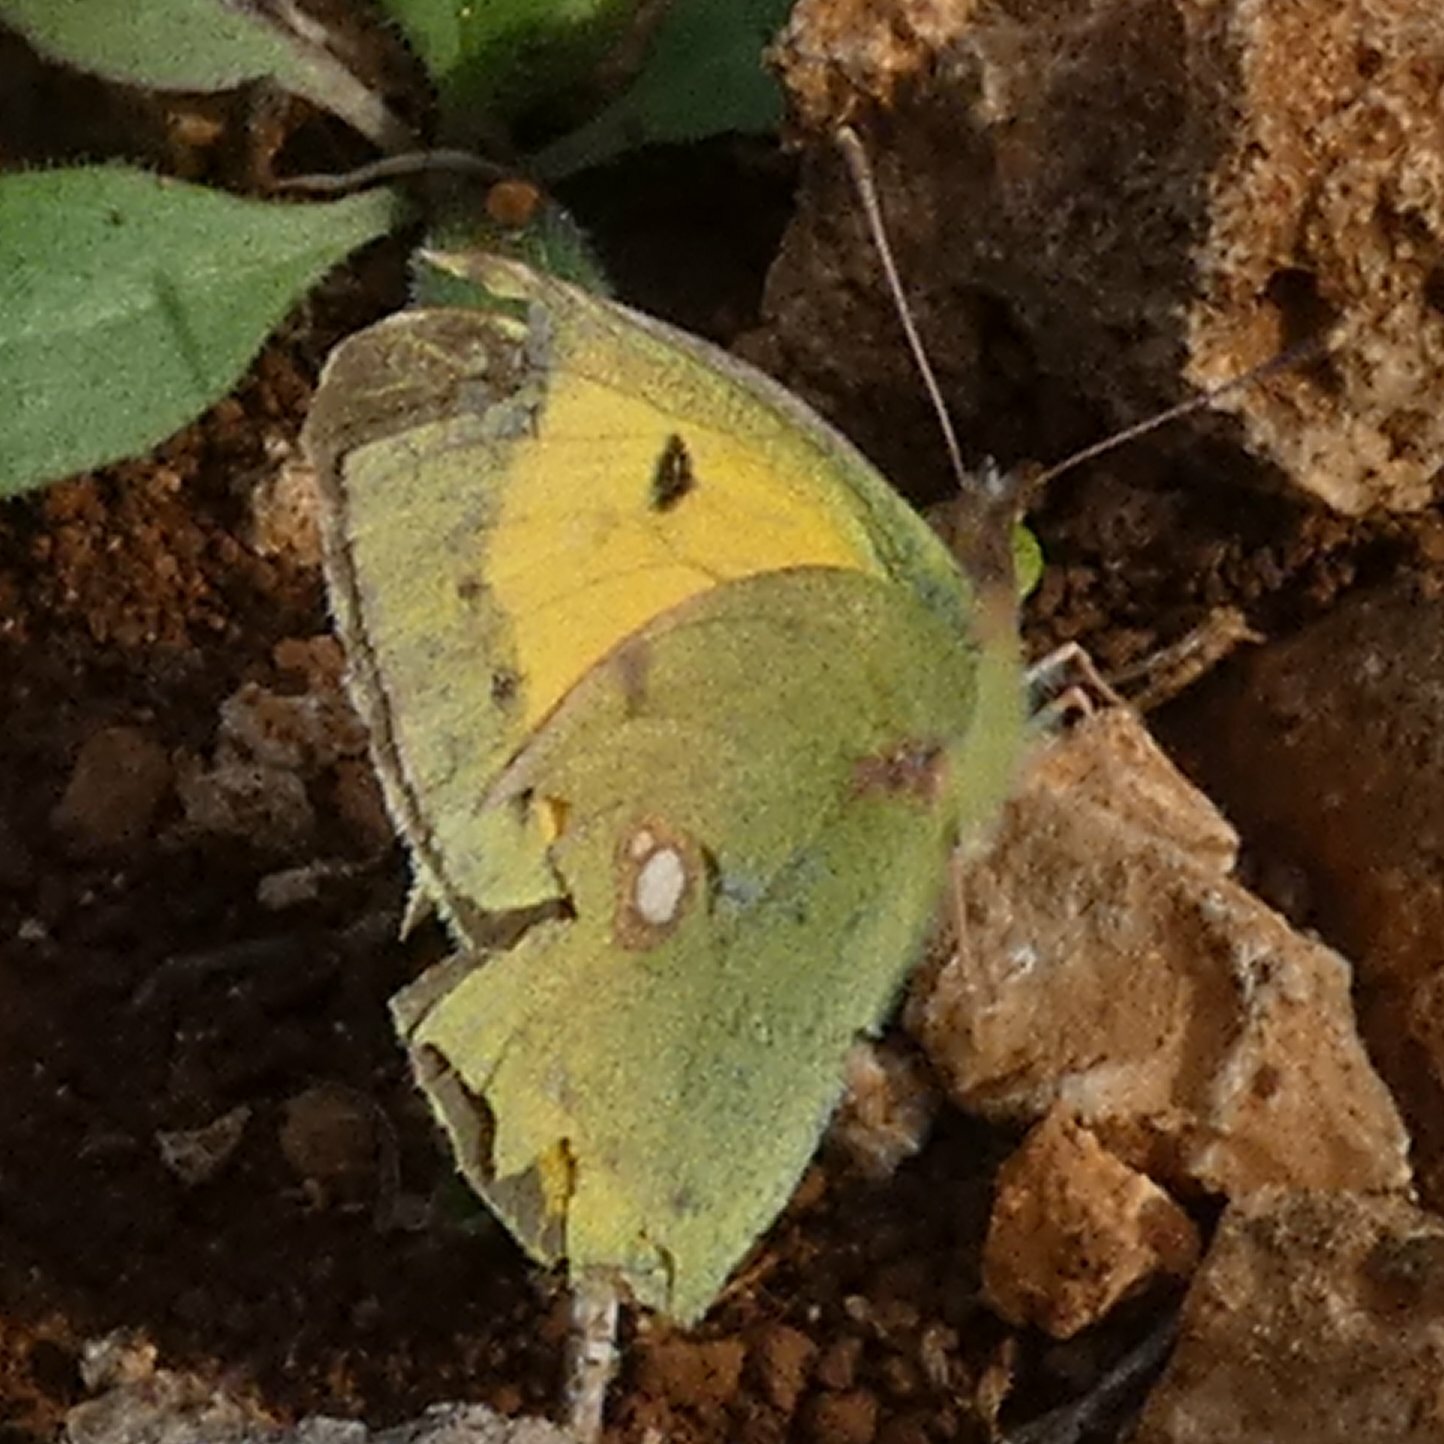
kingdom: Animalia
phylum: Arthropoda
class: Insecta
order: Lepidoptera
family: Pieridae
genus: Colias
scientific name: Colias croceus
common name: Clouded yellow
